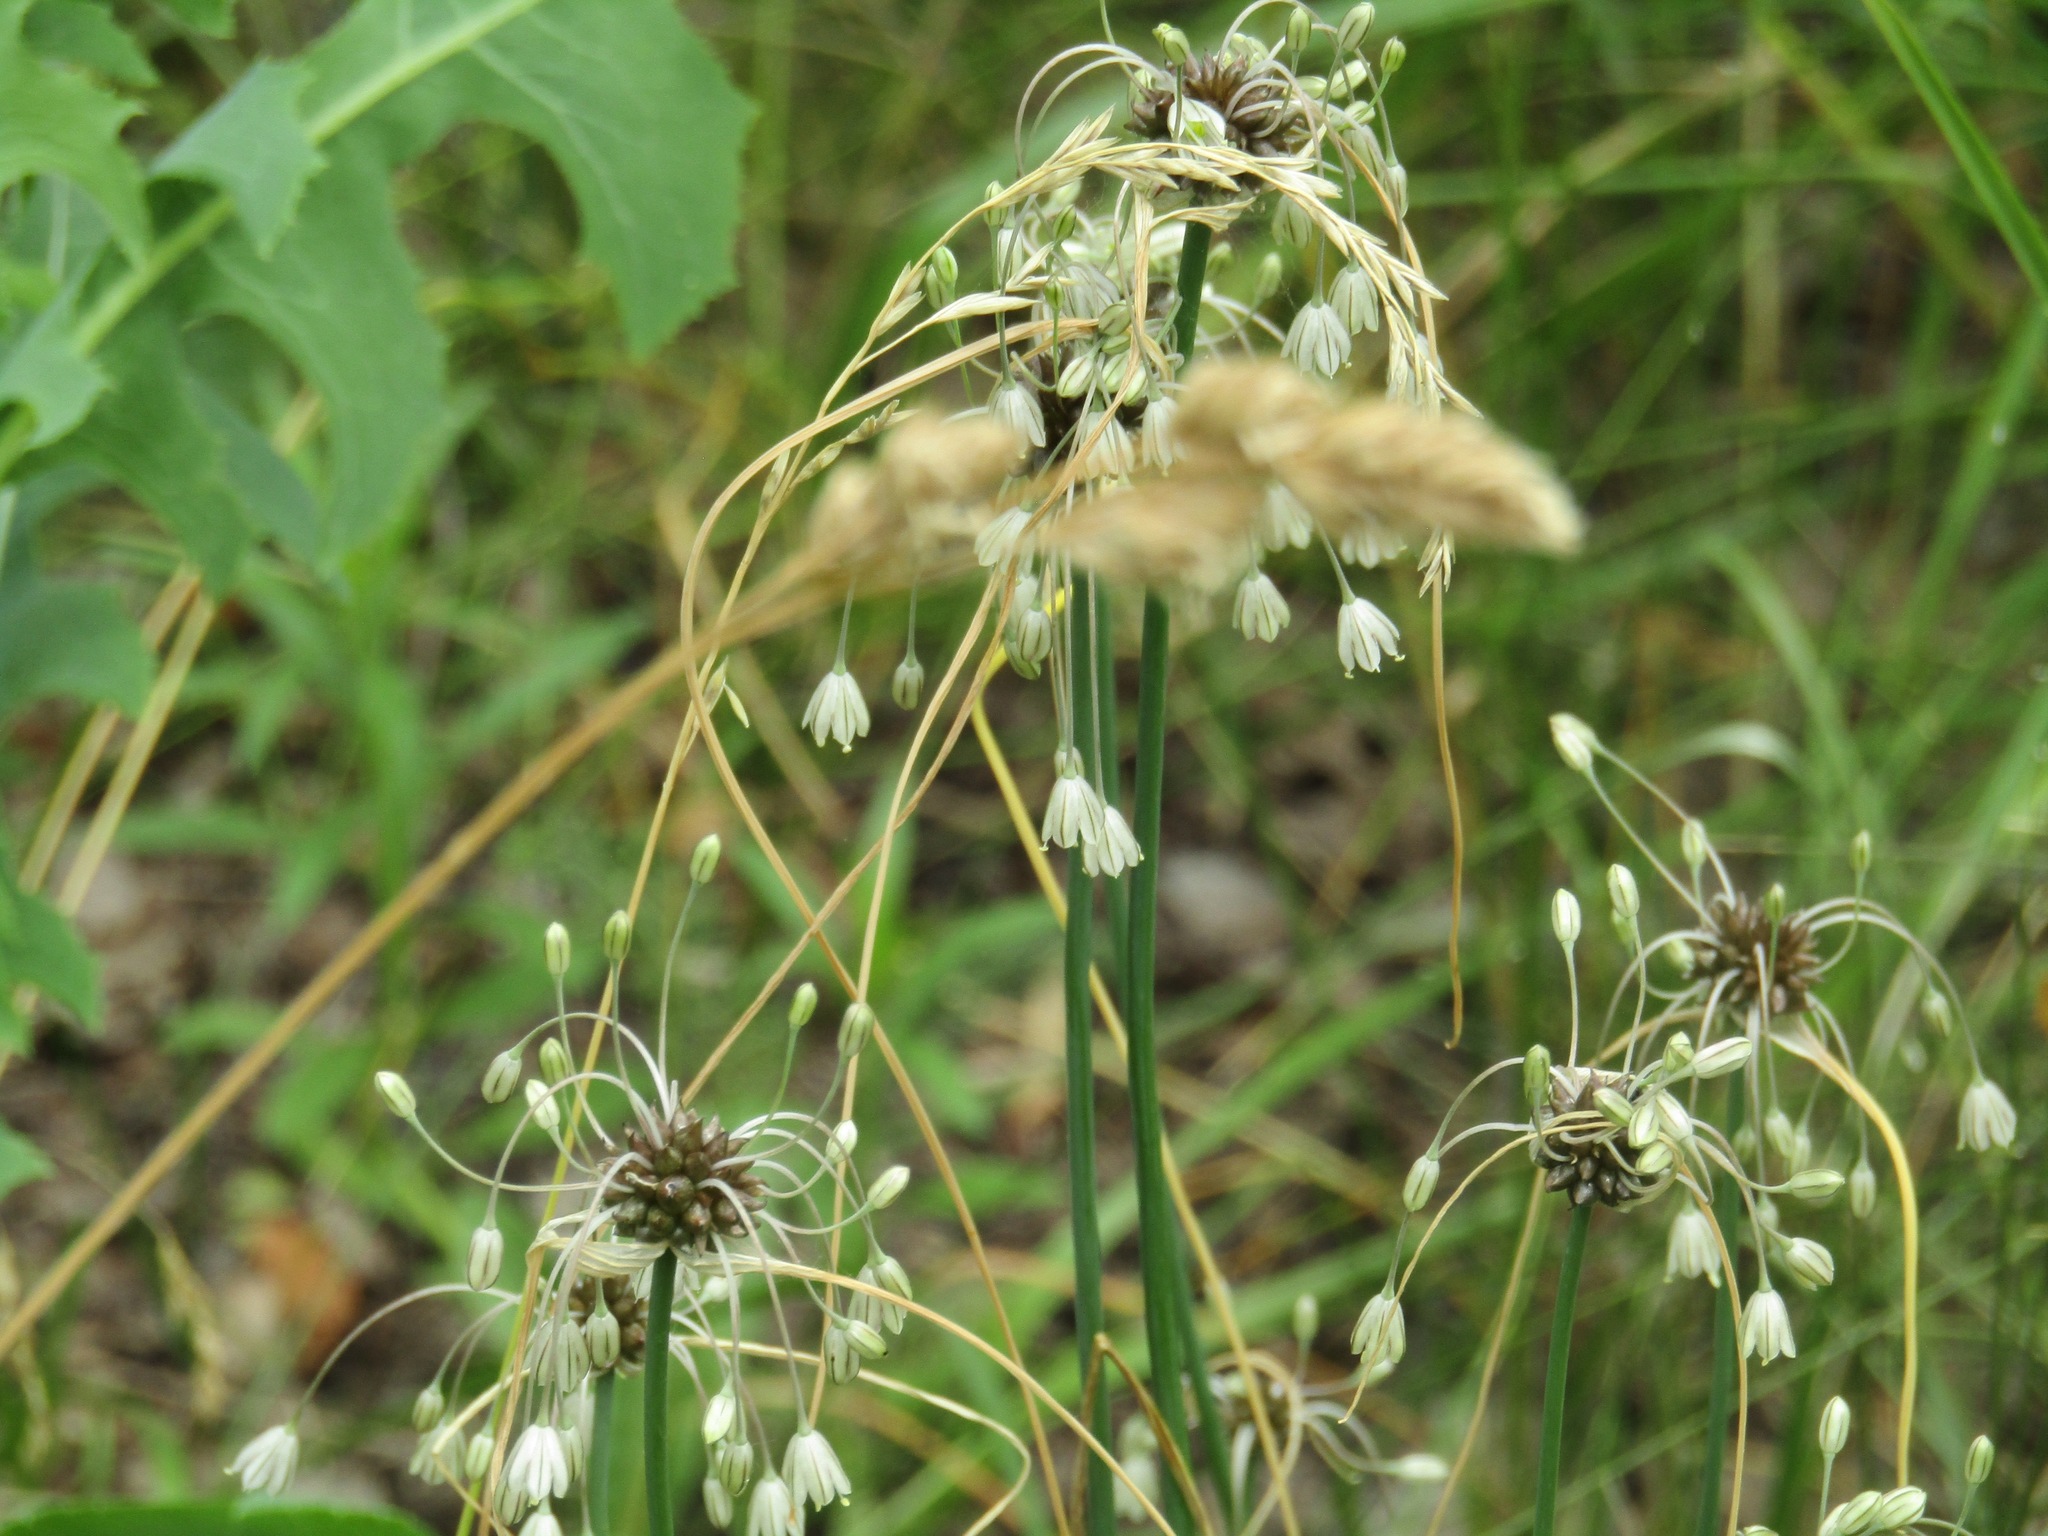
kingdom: Plantae
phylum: Tracheophyta
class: Liliopsida
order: Asparagales
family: Amaryllidaceae
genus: Allium
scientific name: Allium oleraceum
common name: Field garlic
